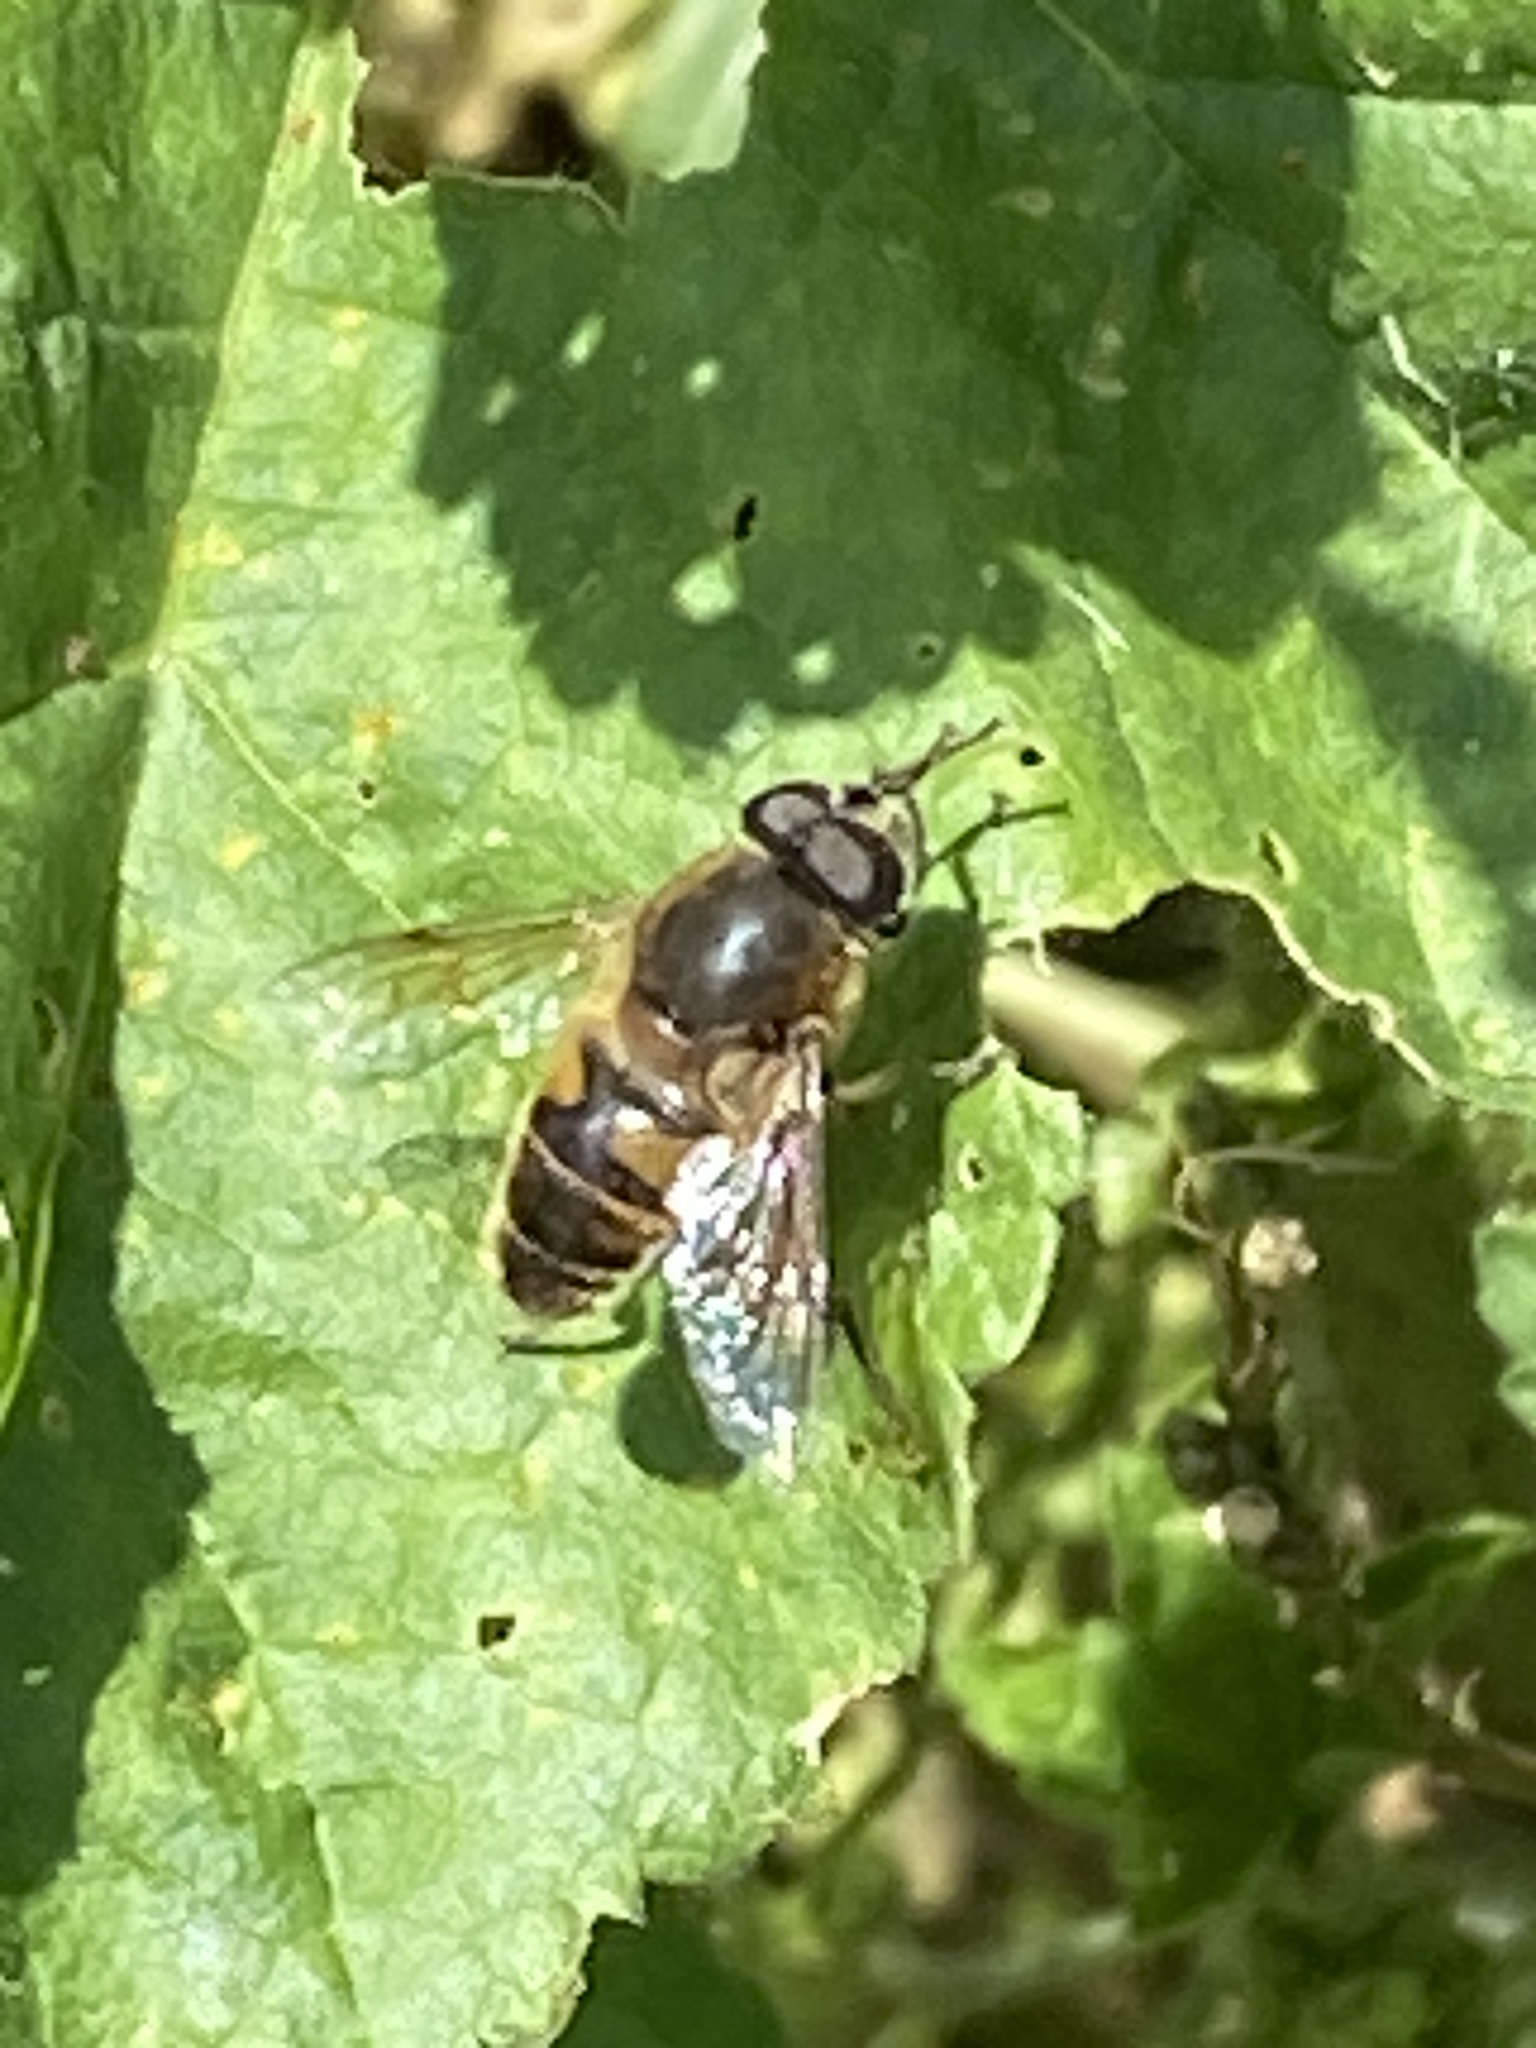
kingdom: Animalia
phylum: Arthropoda
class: Insecta
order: Diptera
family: Syrphidae
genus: Eristalis
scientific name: Eristalis tenax
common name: Drone fly
